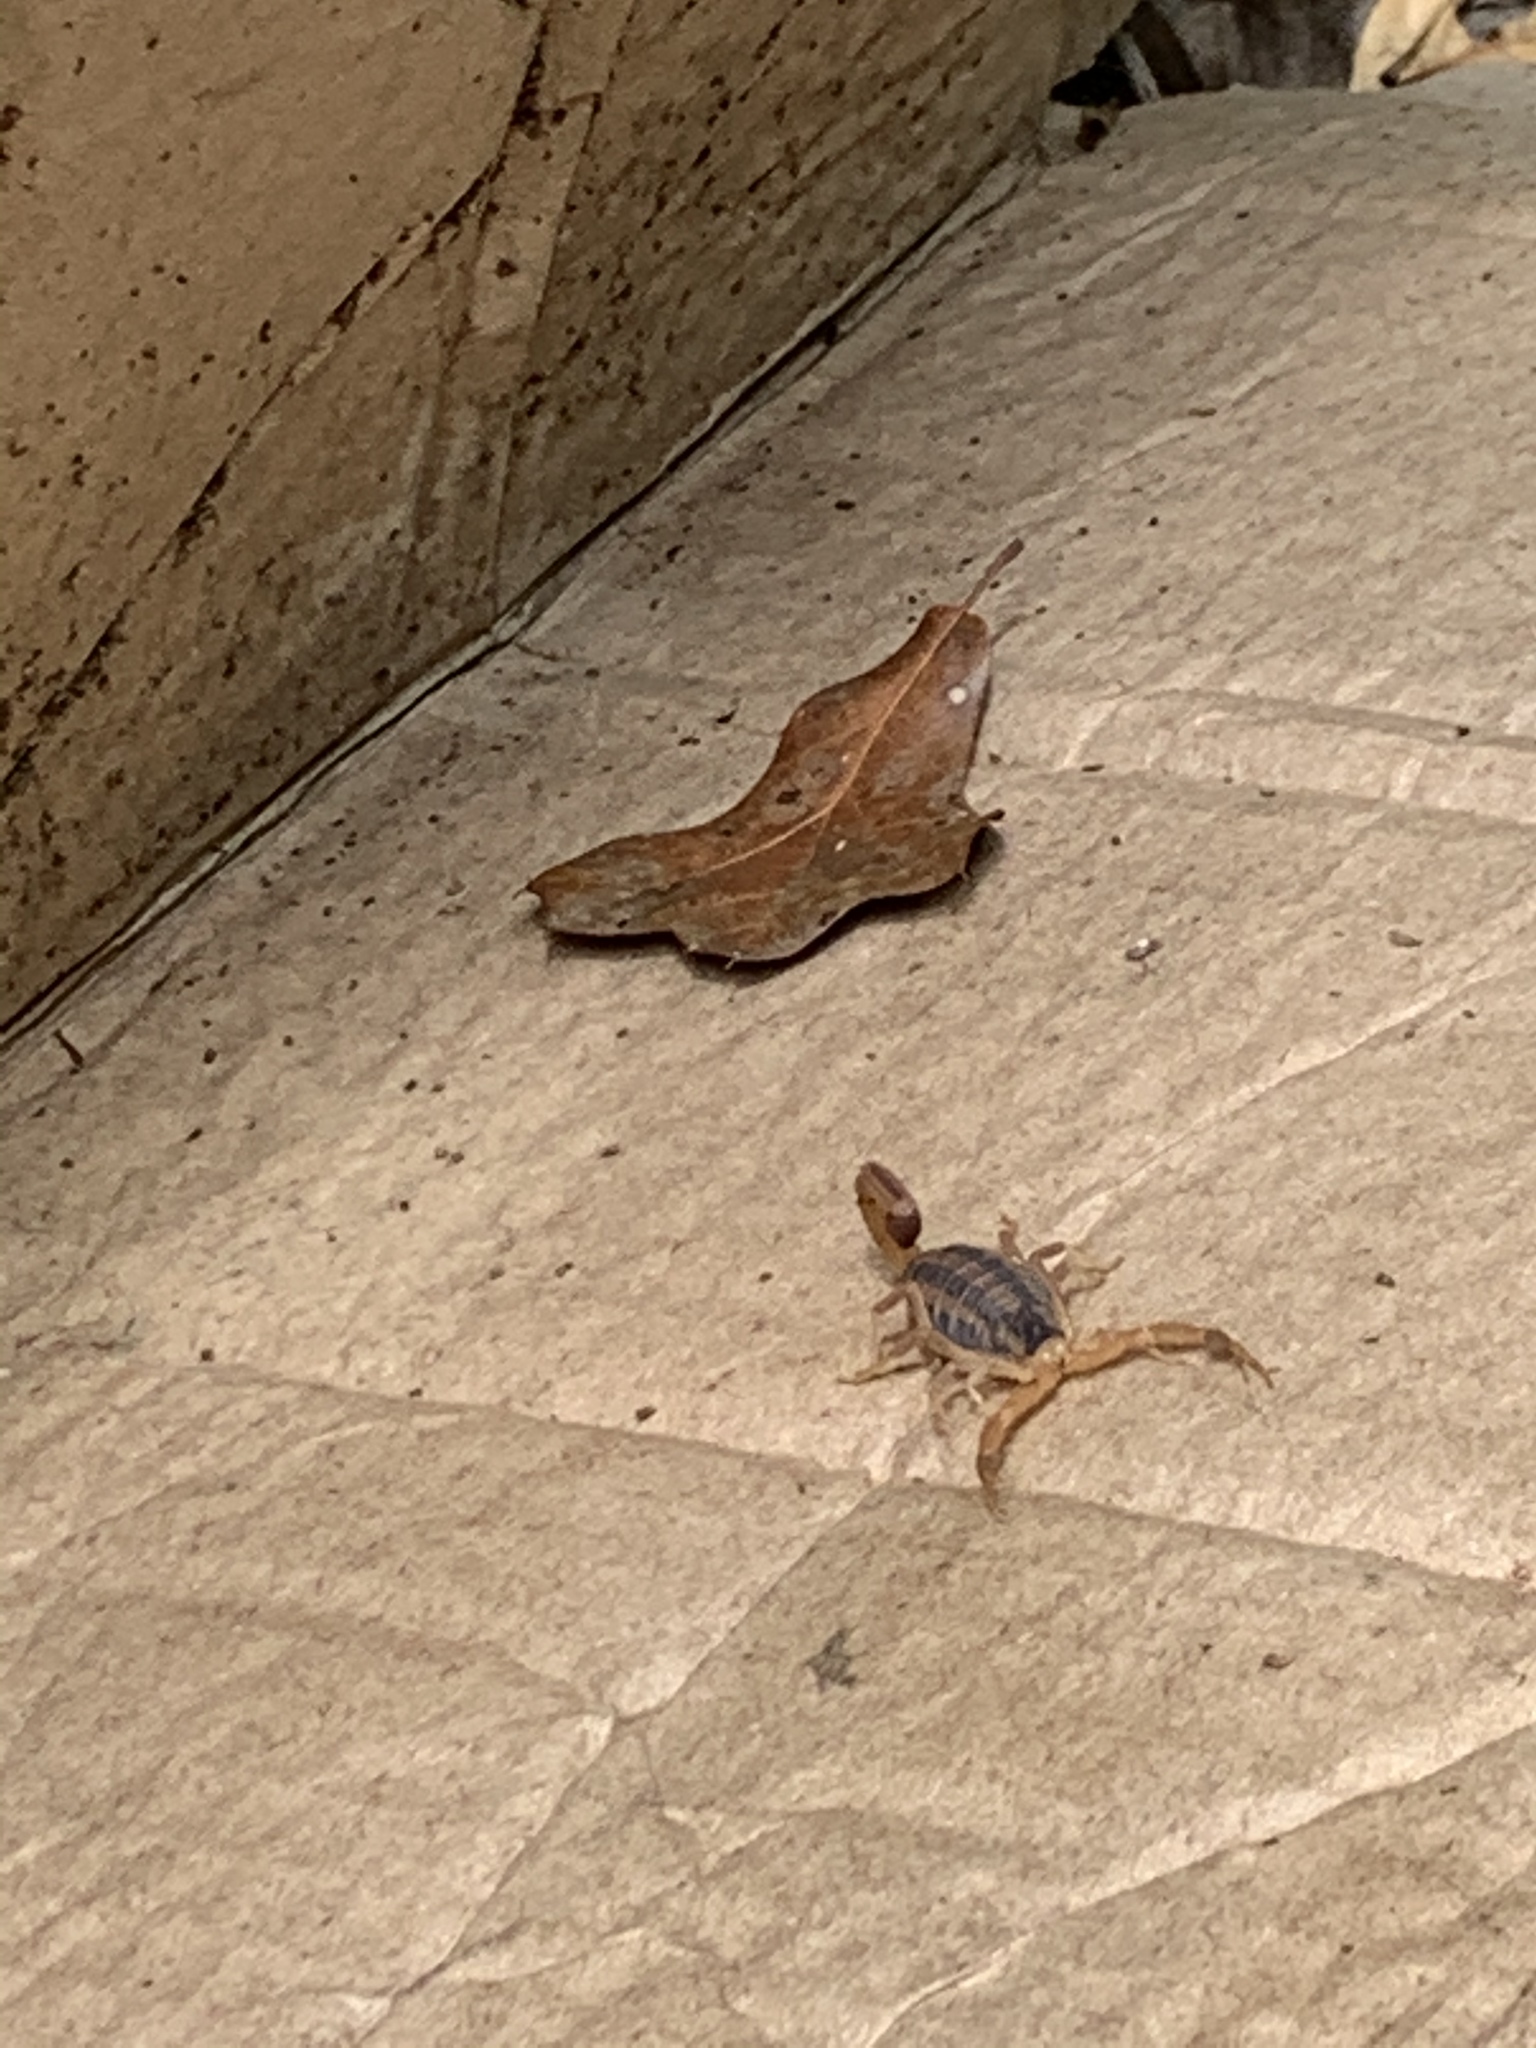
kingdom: Animalia
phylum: Arthropoda
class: Arachnida
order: Scorpiones
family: Buthidae
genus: Centruroides
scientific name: Centruroides vittatus
